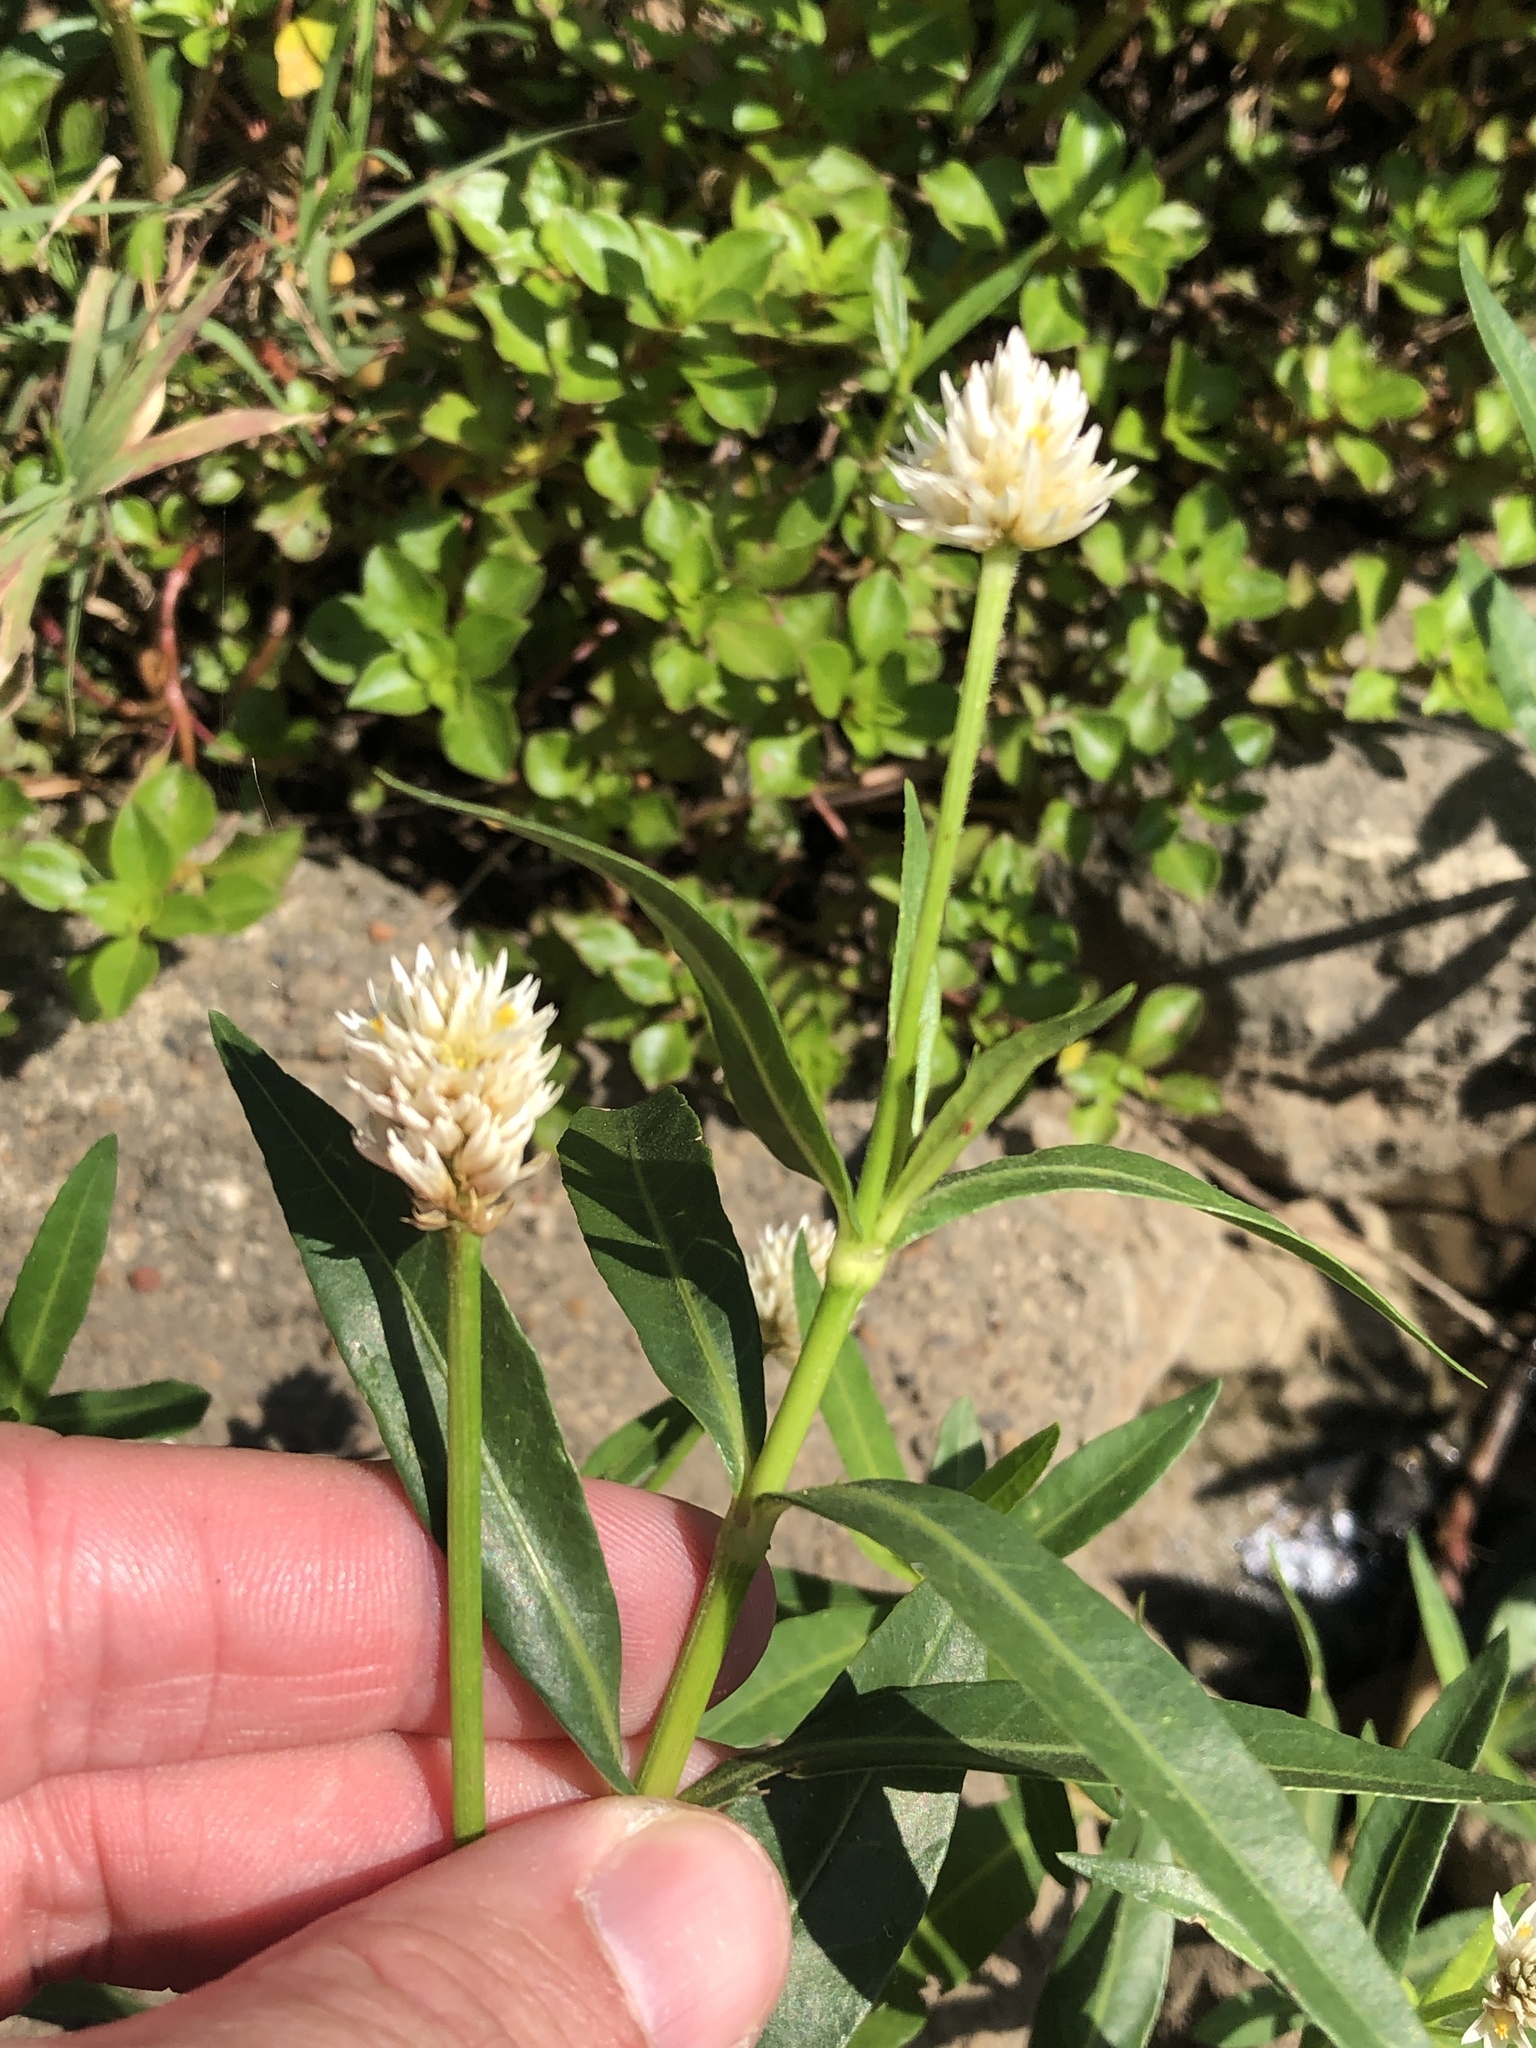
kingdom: Plantae
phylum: Tracheophyta
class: Magnoliopsida
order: Caryophyllales
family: Amaranthaceae
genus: Alternanthera
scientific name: Alternanthera philoxeroides
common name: Alligatorweed
